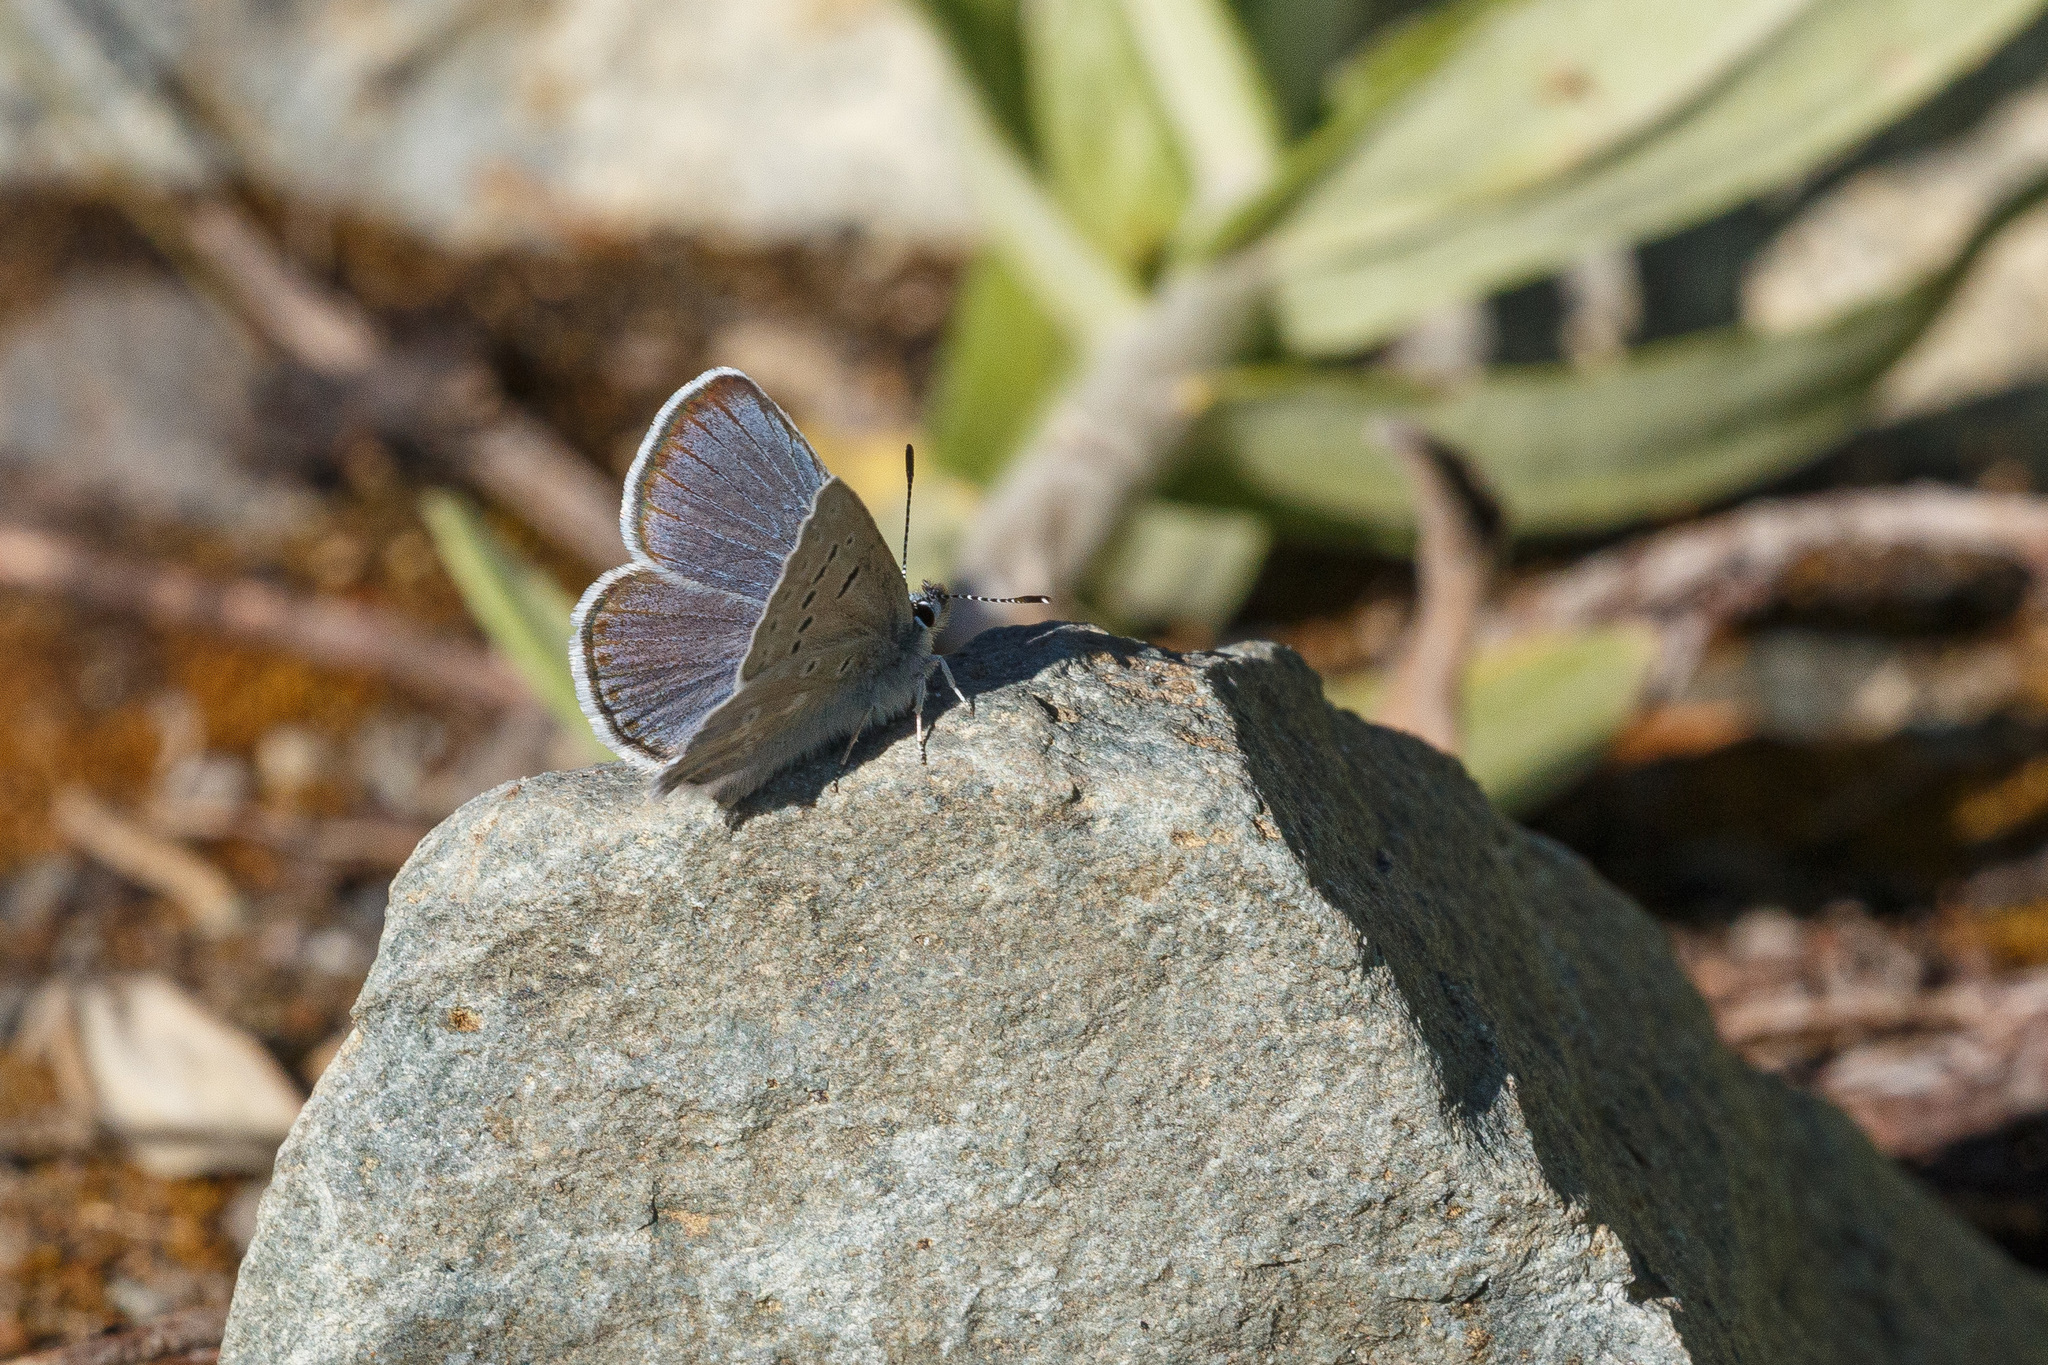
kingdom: Animalia
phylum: Arthropoda
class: Insecta
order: Lepidoptera
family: Lycaenidae
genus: Icaricia
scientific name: Icaricia icarioides
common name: Boisduval's blue
